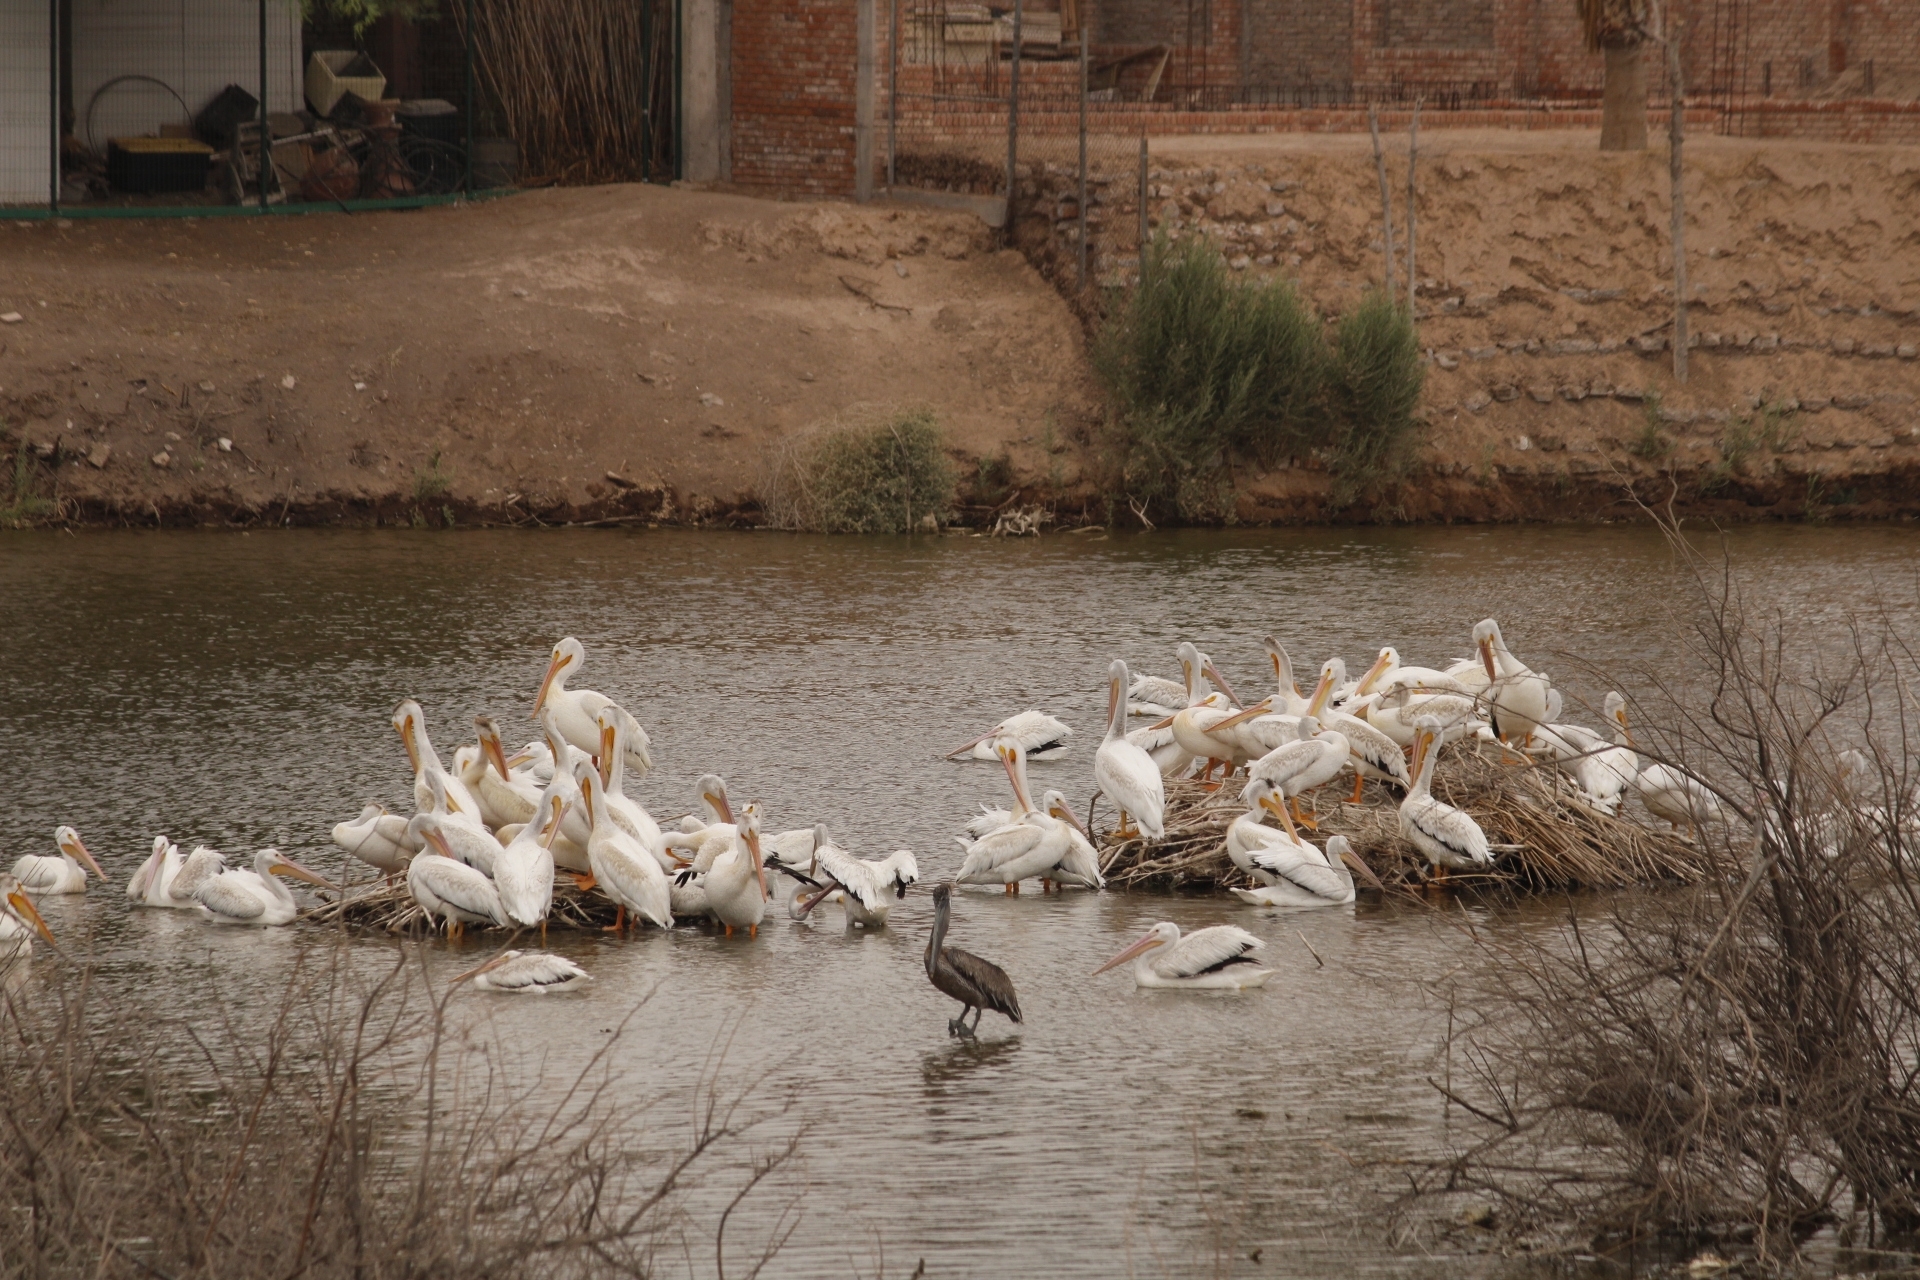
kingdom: Animalia
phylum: Chordata
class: Aves
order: Pelecaniformes
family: Pelecanidae
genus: Pelecanus
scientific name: Pelecanus erythrorhynchos
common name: American white pelican
